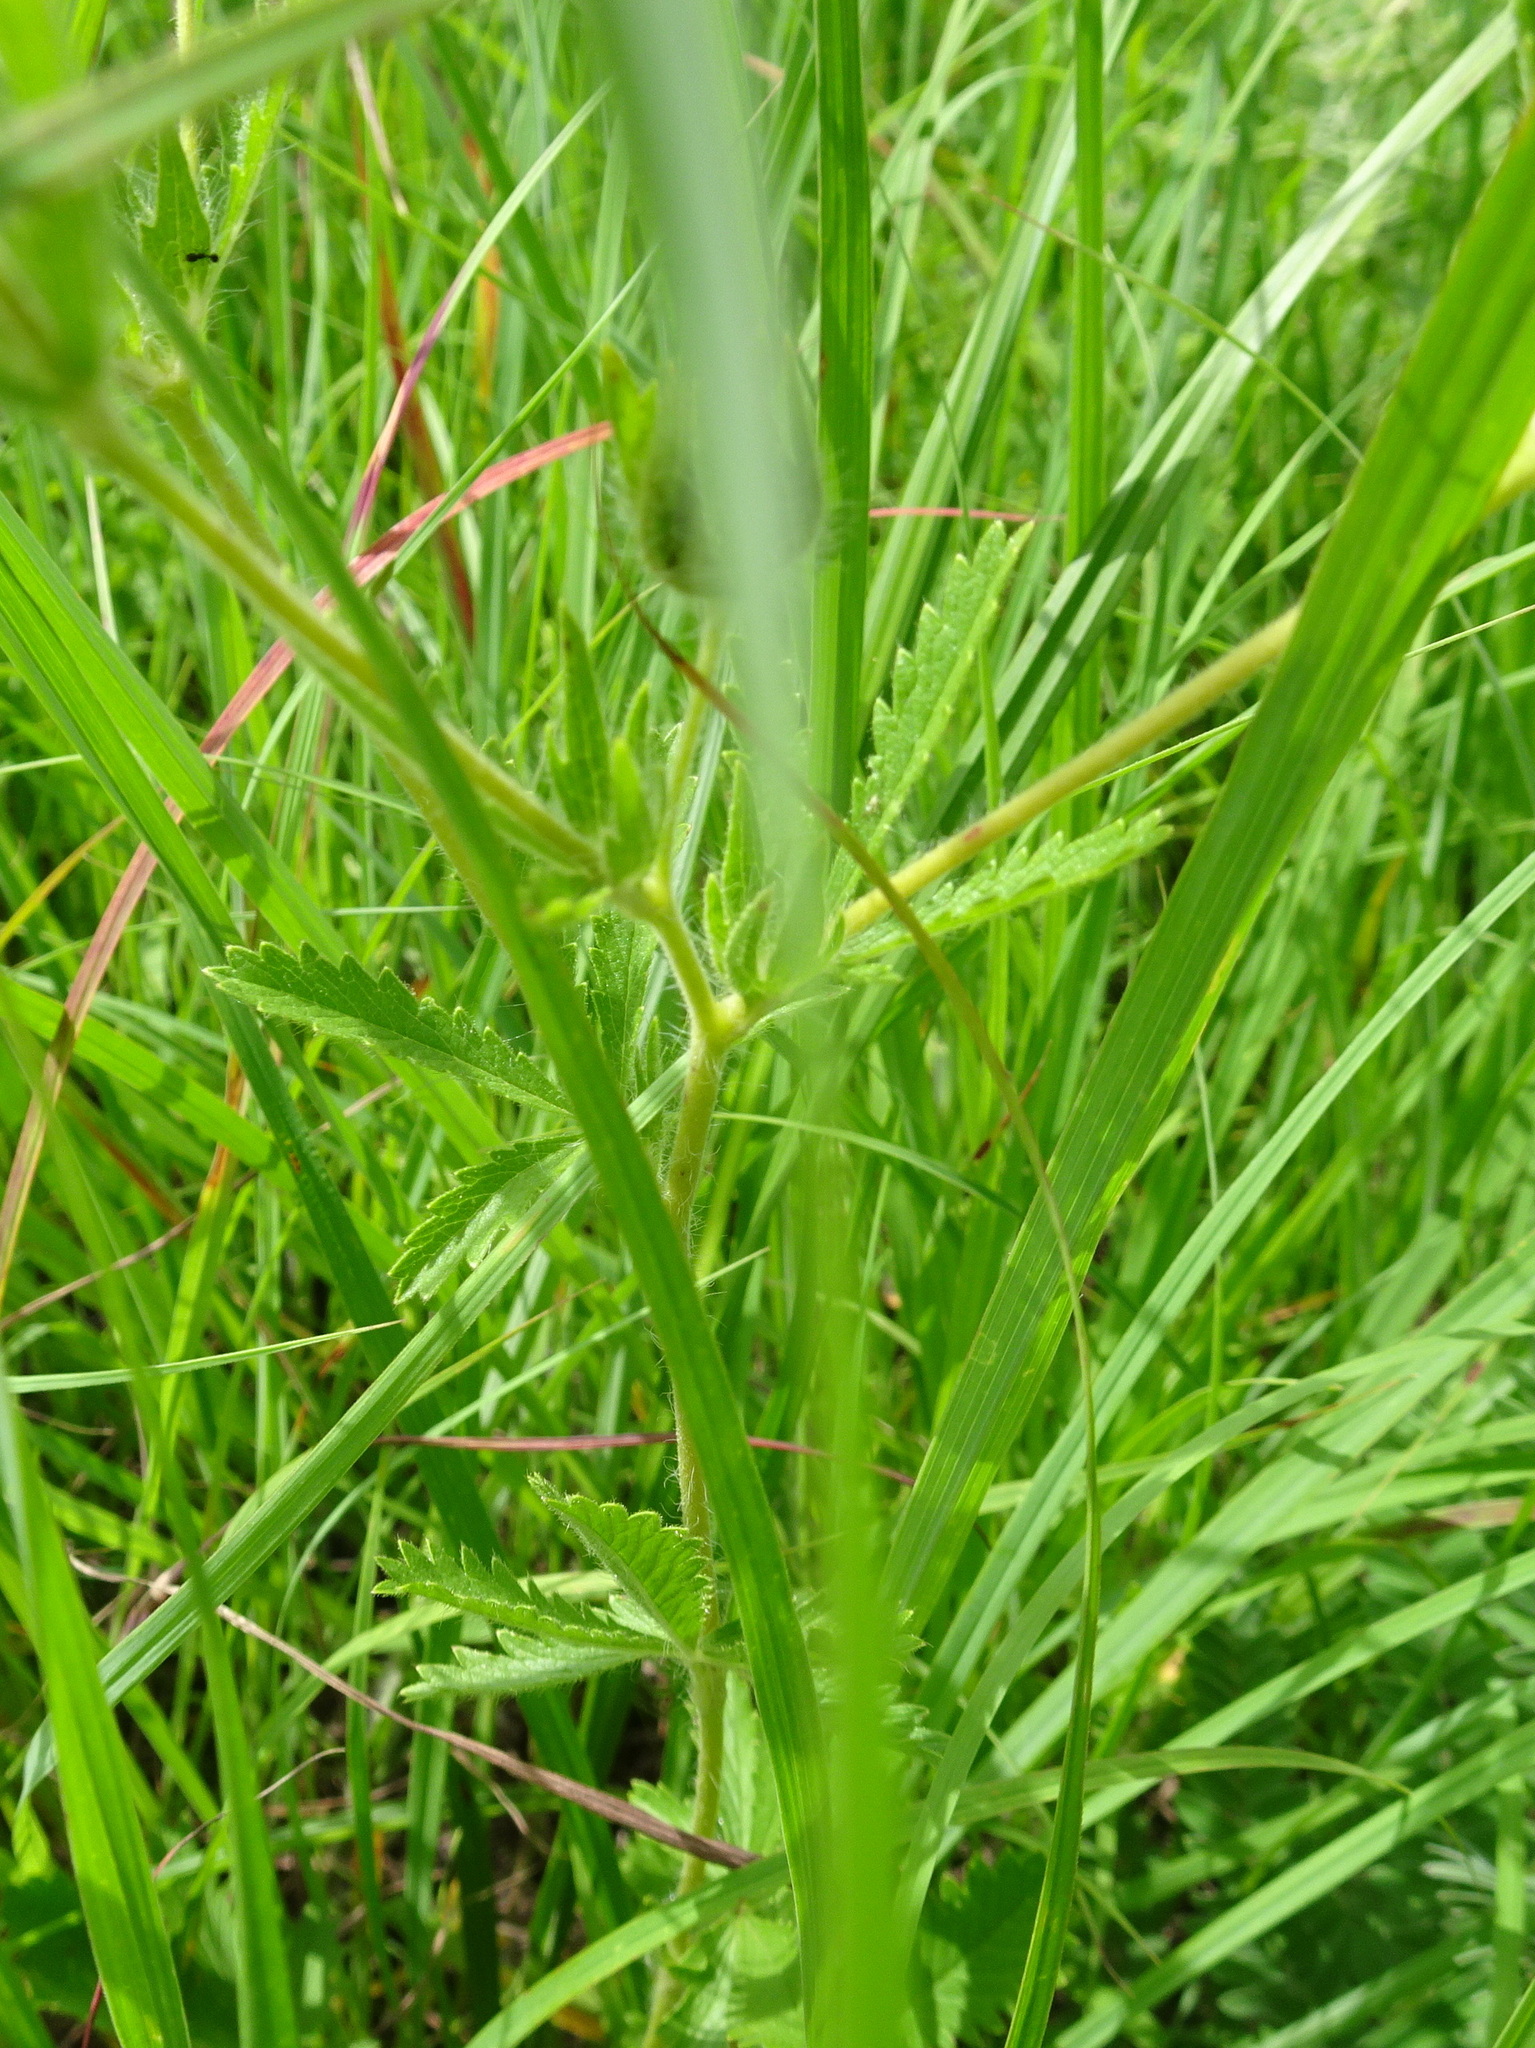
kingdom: Plantae
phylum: Tracheophyta
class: Magnoliopsida
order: Rosales
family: Rosaceae
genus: Potentilla
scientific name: Potentilla recta
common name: Sulphur cinquefoil
